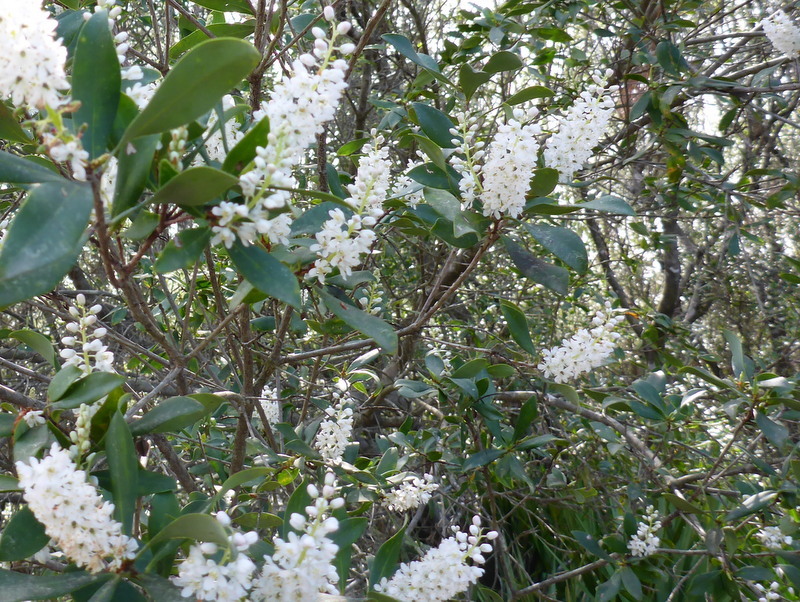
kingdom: Plantae
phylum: Tracheophyta
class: Magnoliopsida
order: Ericales
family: Cyrillaceae
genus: Cliftonia
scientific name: Cliftonia monophylla
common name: Titi
